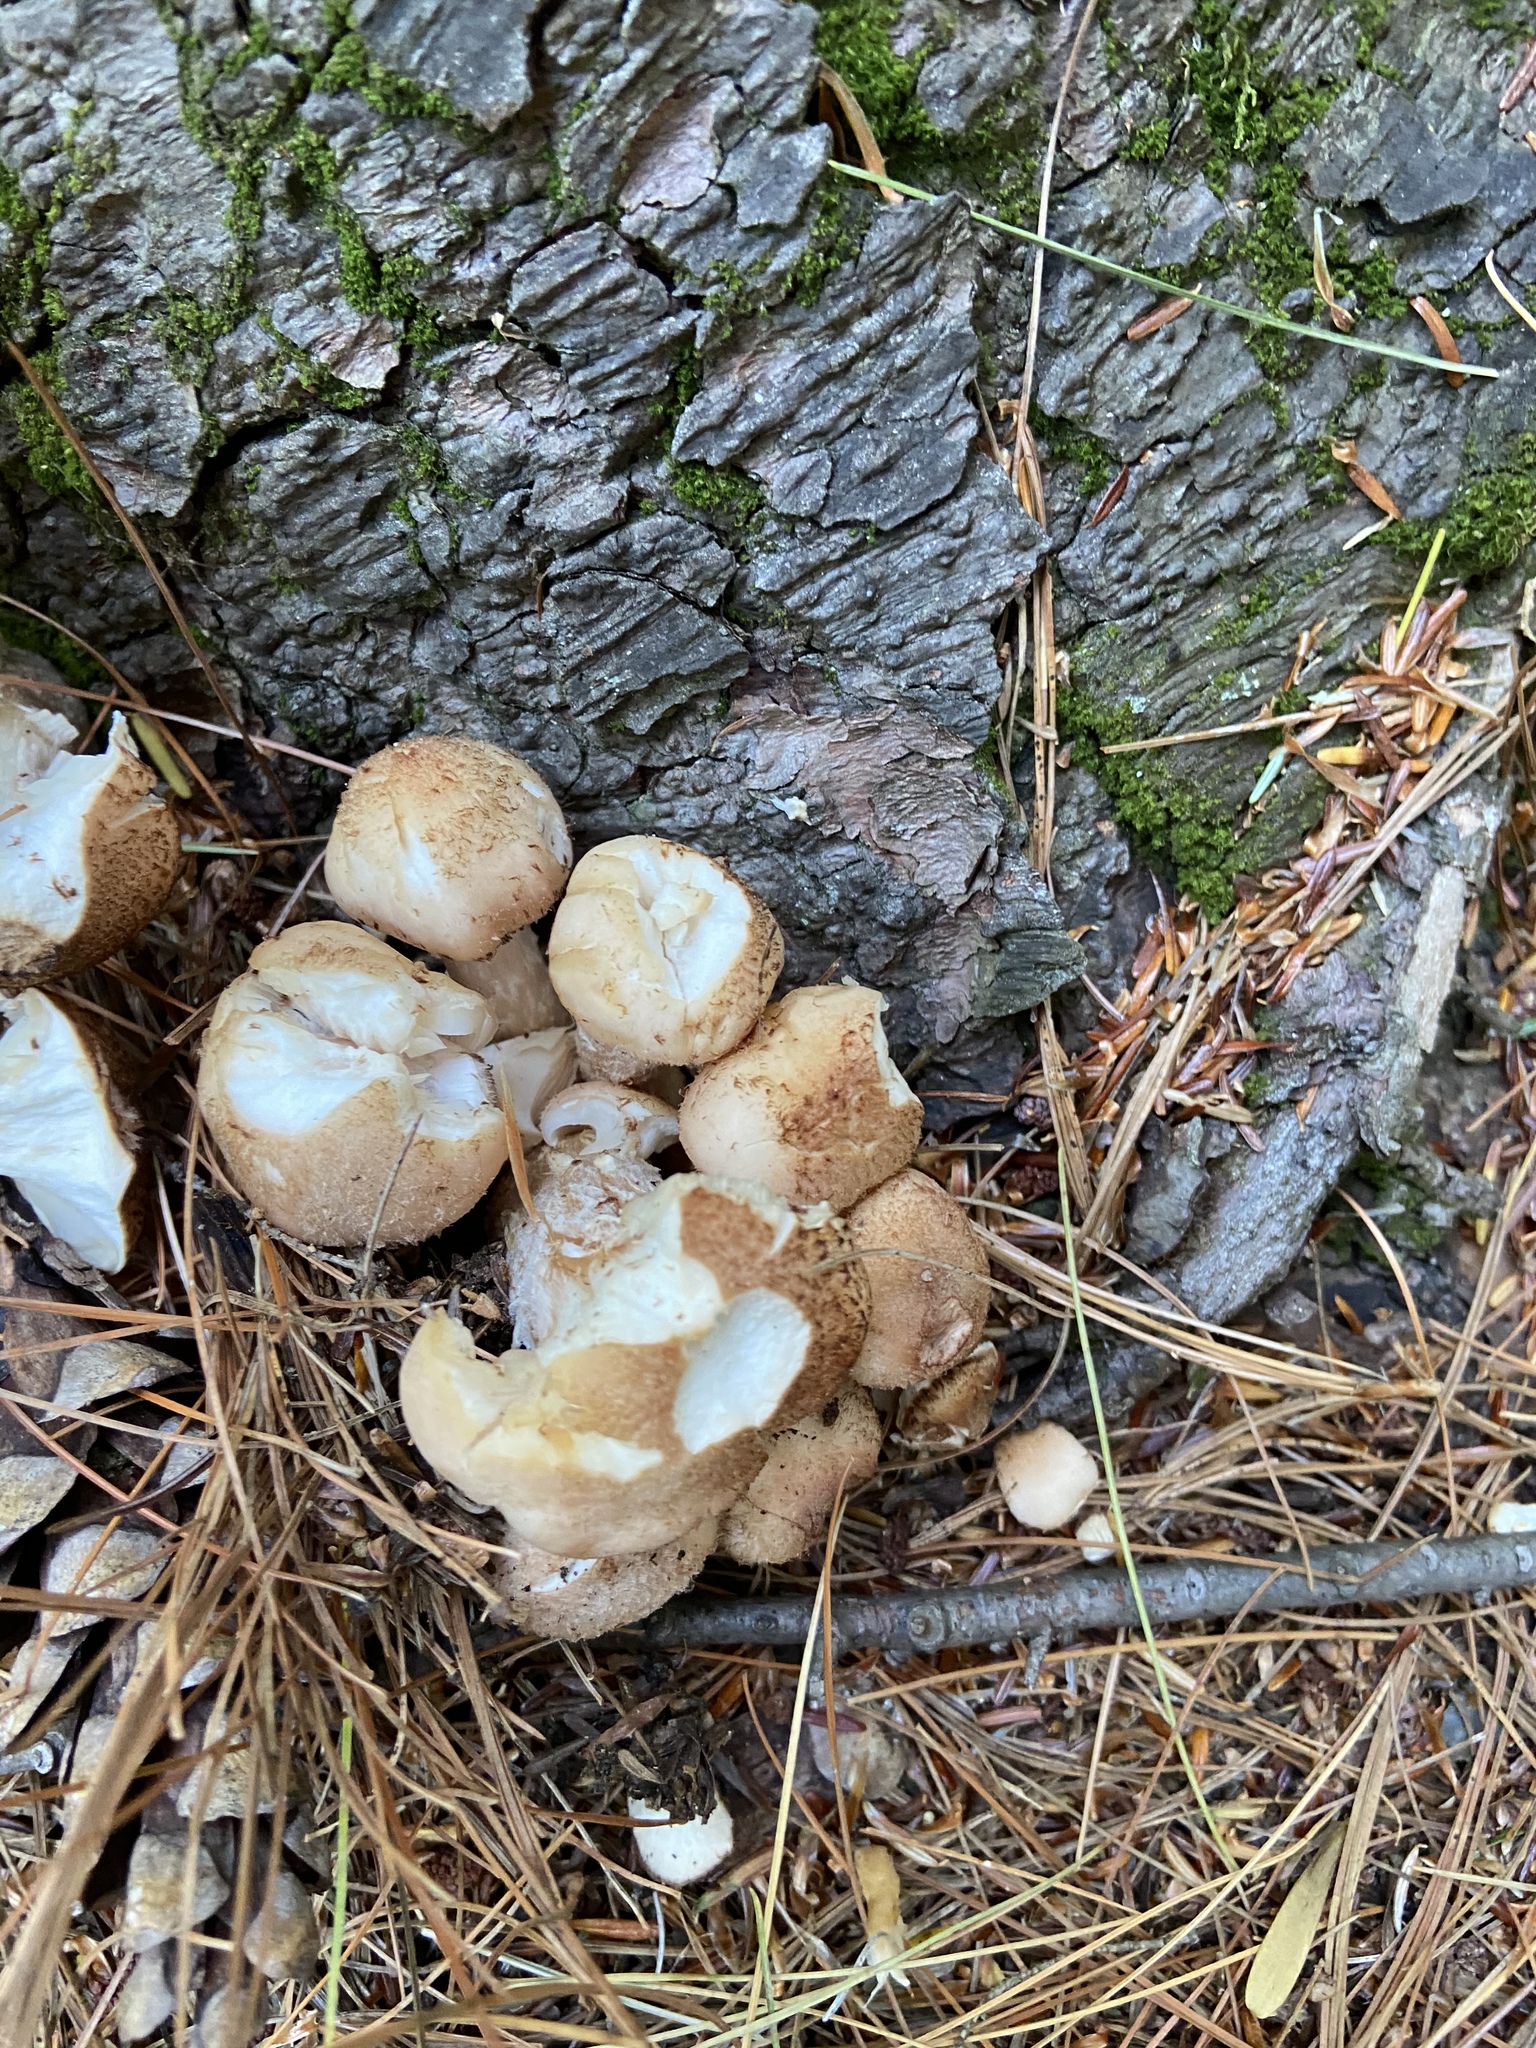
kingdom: Fungi
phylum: Basidiomycota
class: Agaricomycetes
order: Agaricales
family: Lycoperdaceae
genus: Apioperdon
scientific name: Apioperdon pyriforme
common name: Pear-shaped puffball
